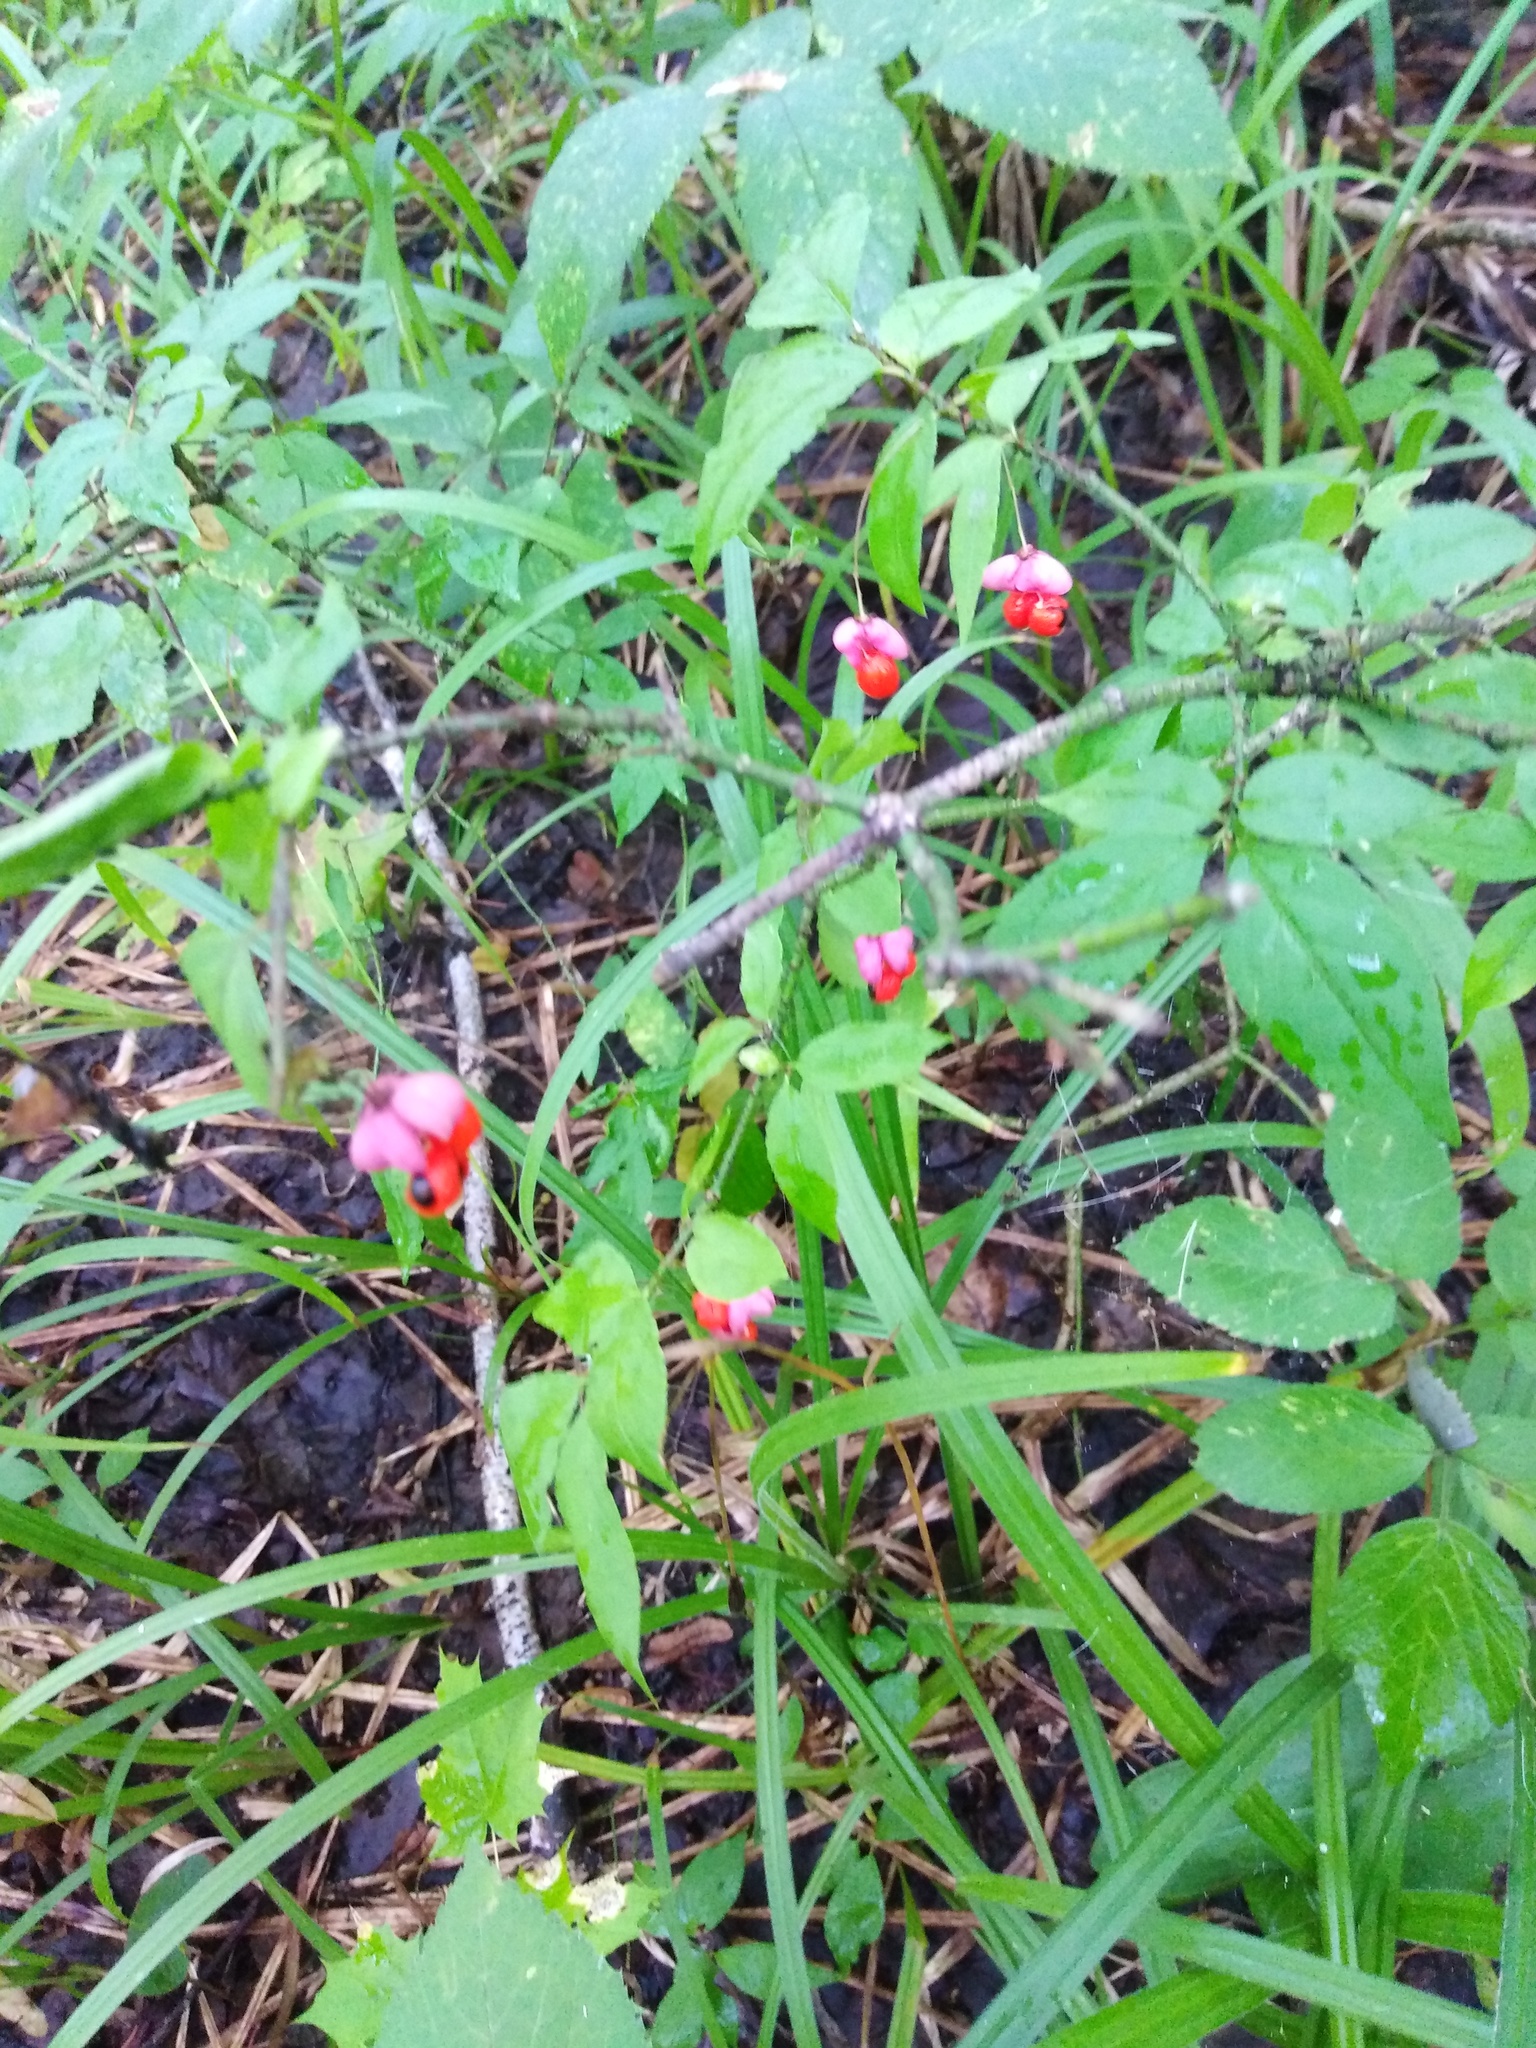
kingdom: Plantae
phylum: Tracheophyta
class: Magnoliopsida
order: Celastrales
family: Celastraceae
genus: Euonymus
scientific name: Euonymus verrucosus
